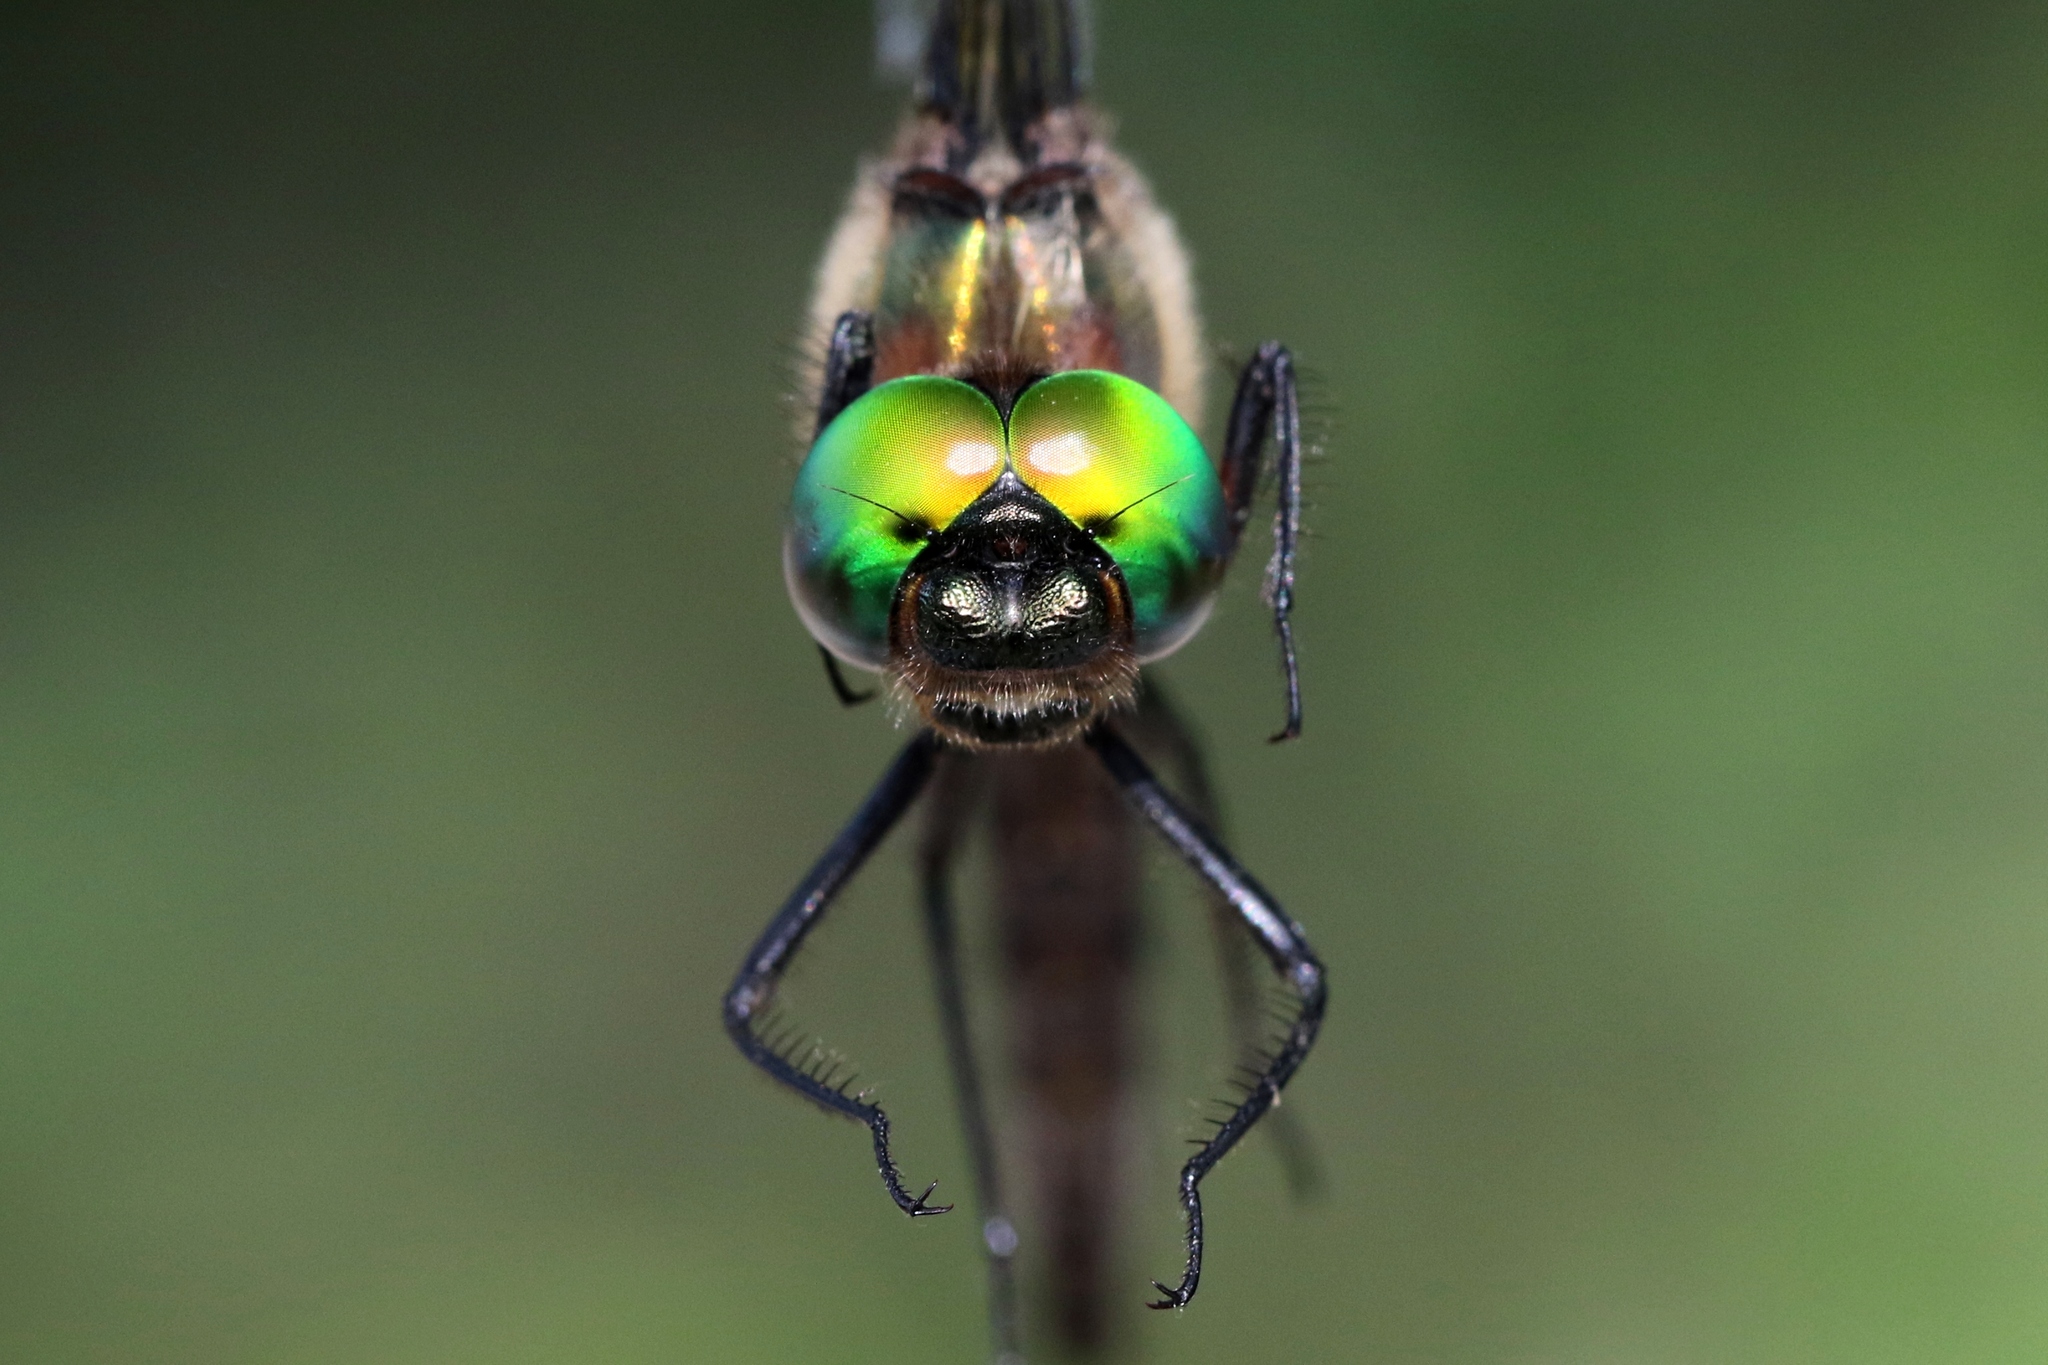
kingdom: Animalia
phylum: Arthropoda
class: Insecta
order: Odonata
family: Corduliidae
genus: Somatochlora
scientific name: Somatochlora walshii
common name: Brush-tipped emerald
